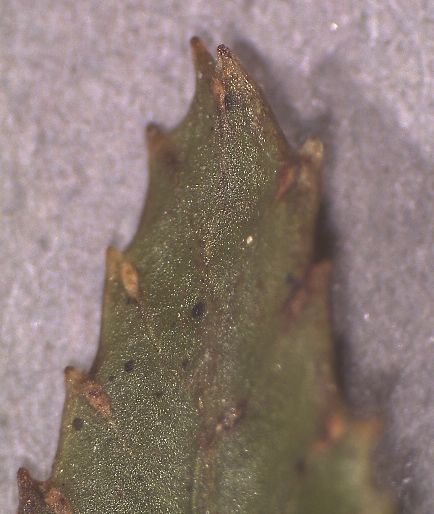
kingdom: Plantae
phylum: Tracheophyta
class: Polypodiopsida
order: Polypodiales
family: Blechnaceae
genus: Parablechnum
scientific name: Parablechnum montanum
